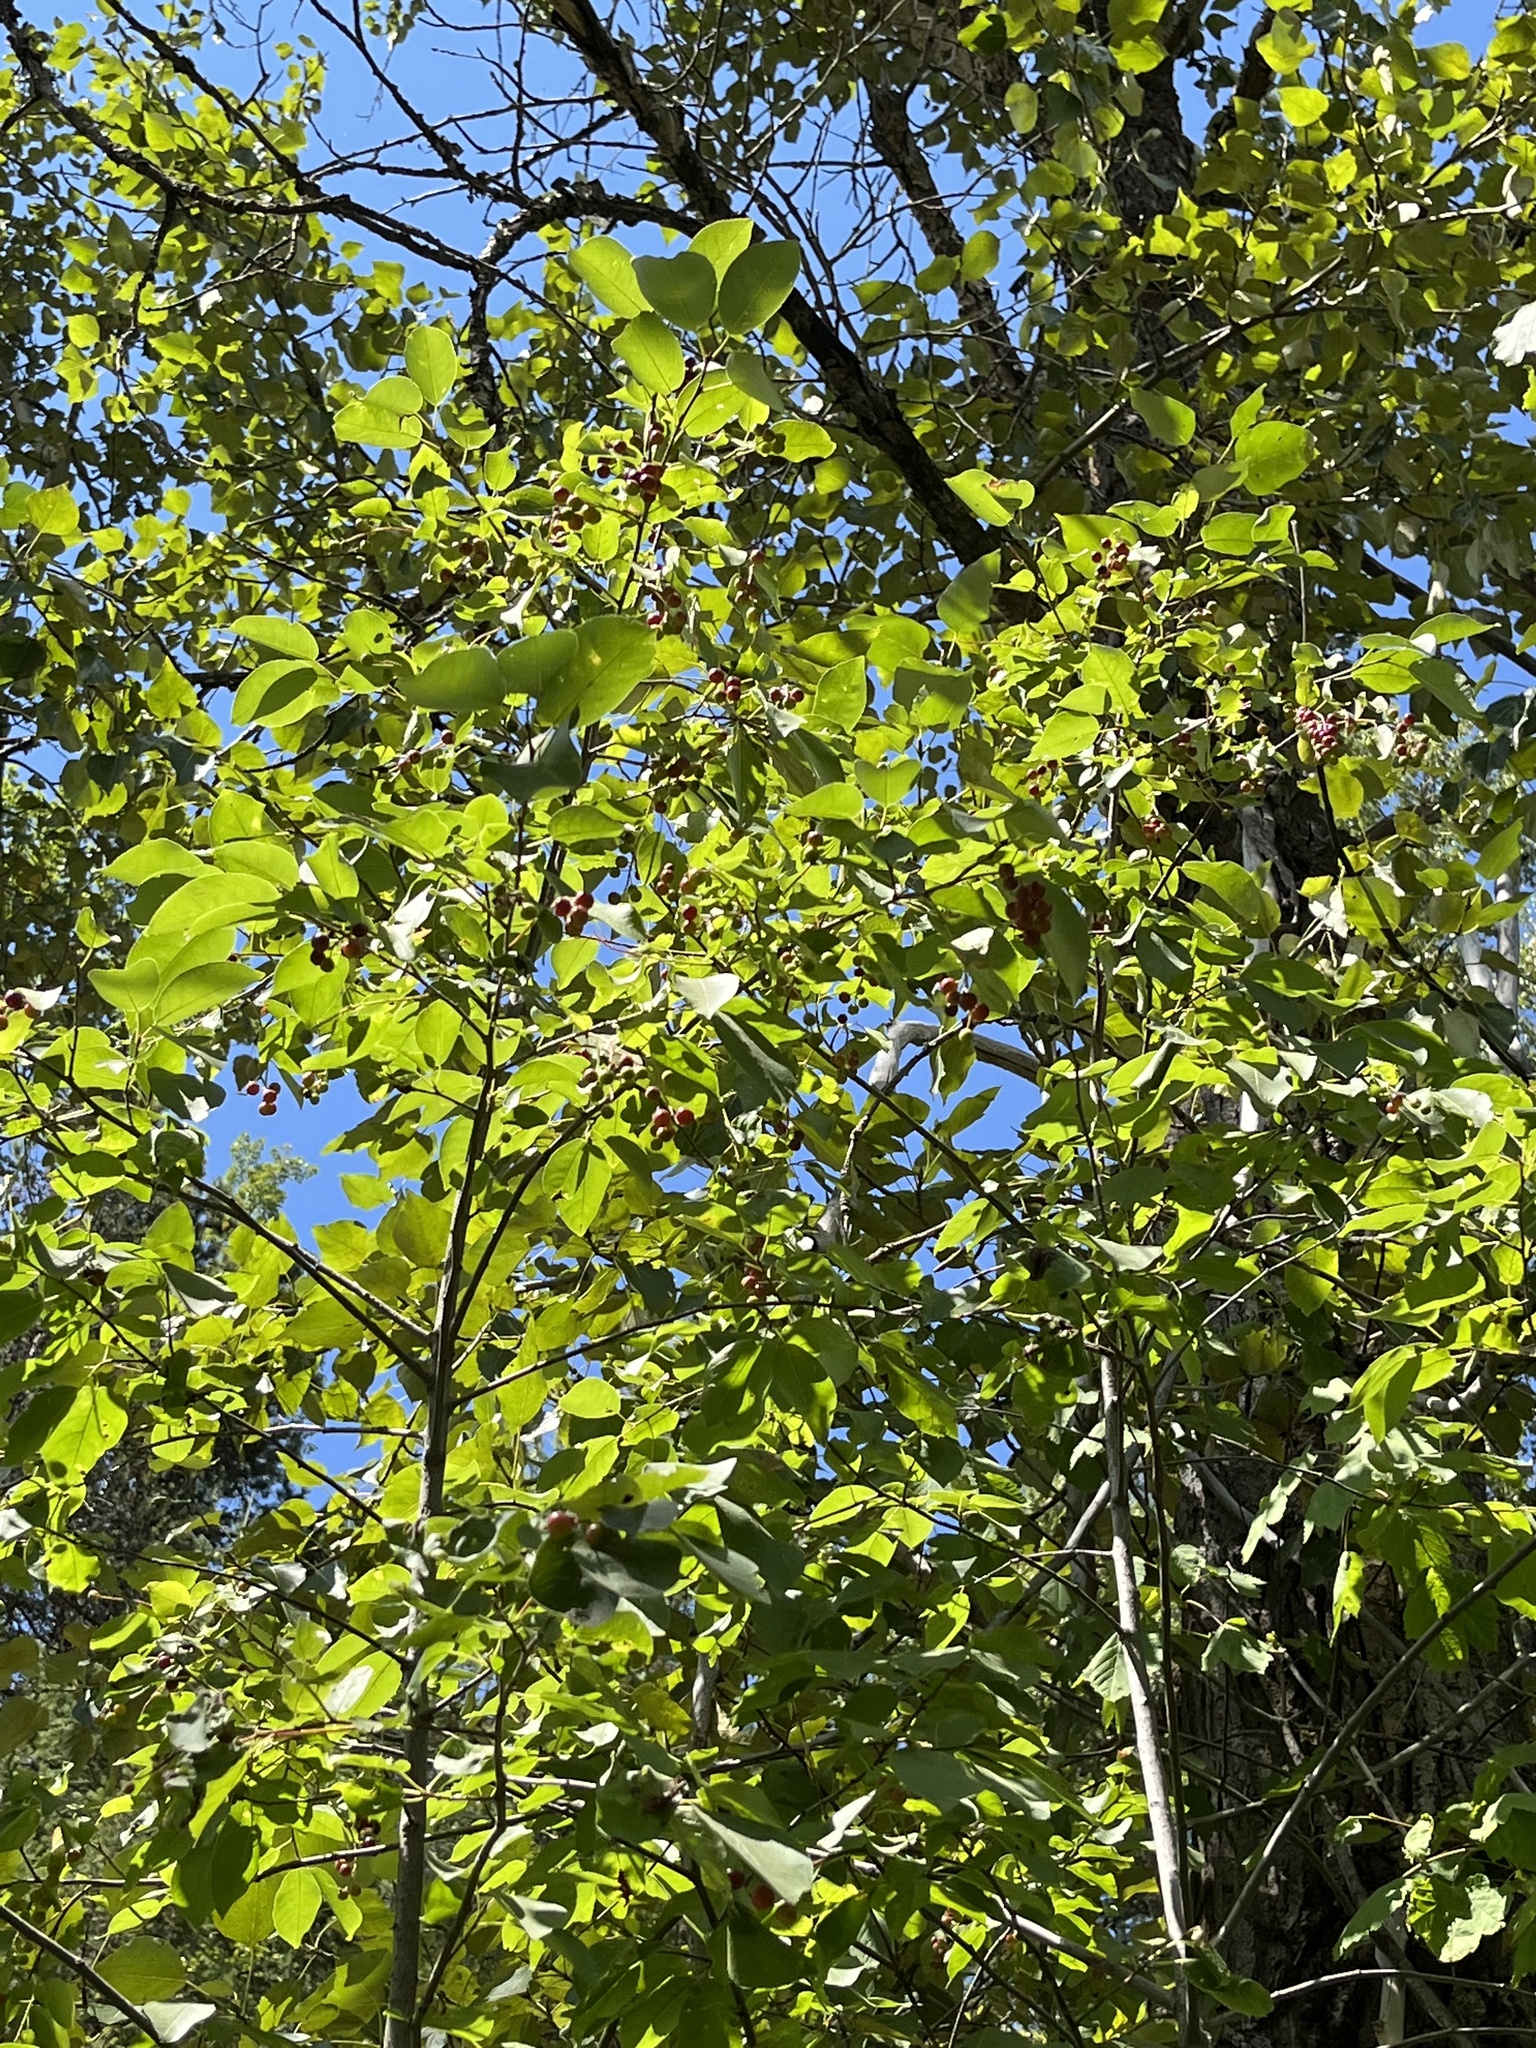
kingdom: Plantae
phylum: Tracheophyta
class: Magnoliopsida
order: Rosales
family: Rosaceae
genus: Prunus
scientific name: Prunus virginiana
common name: Chokecherry
